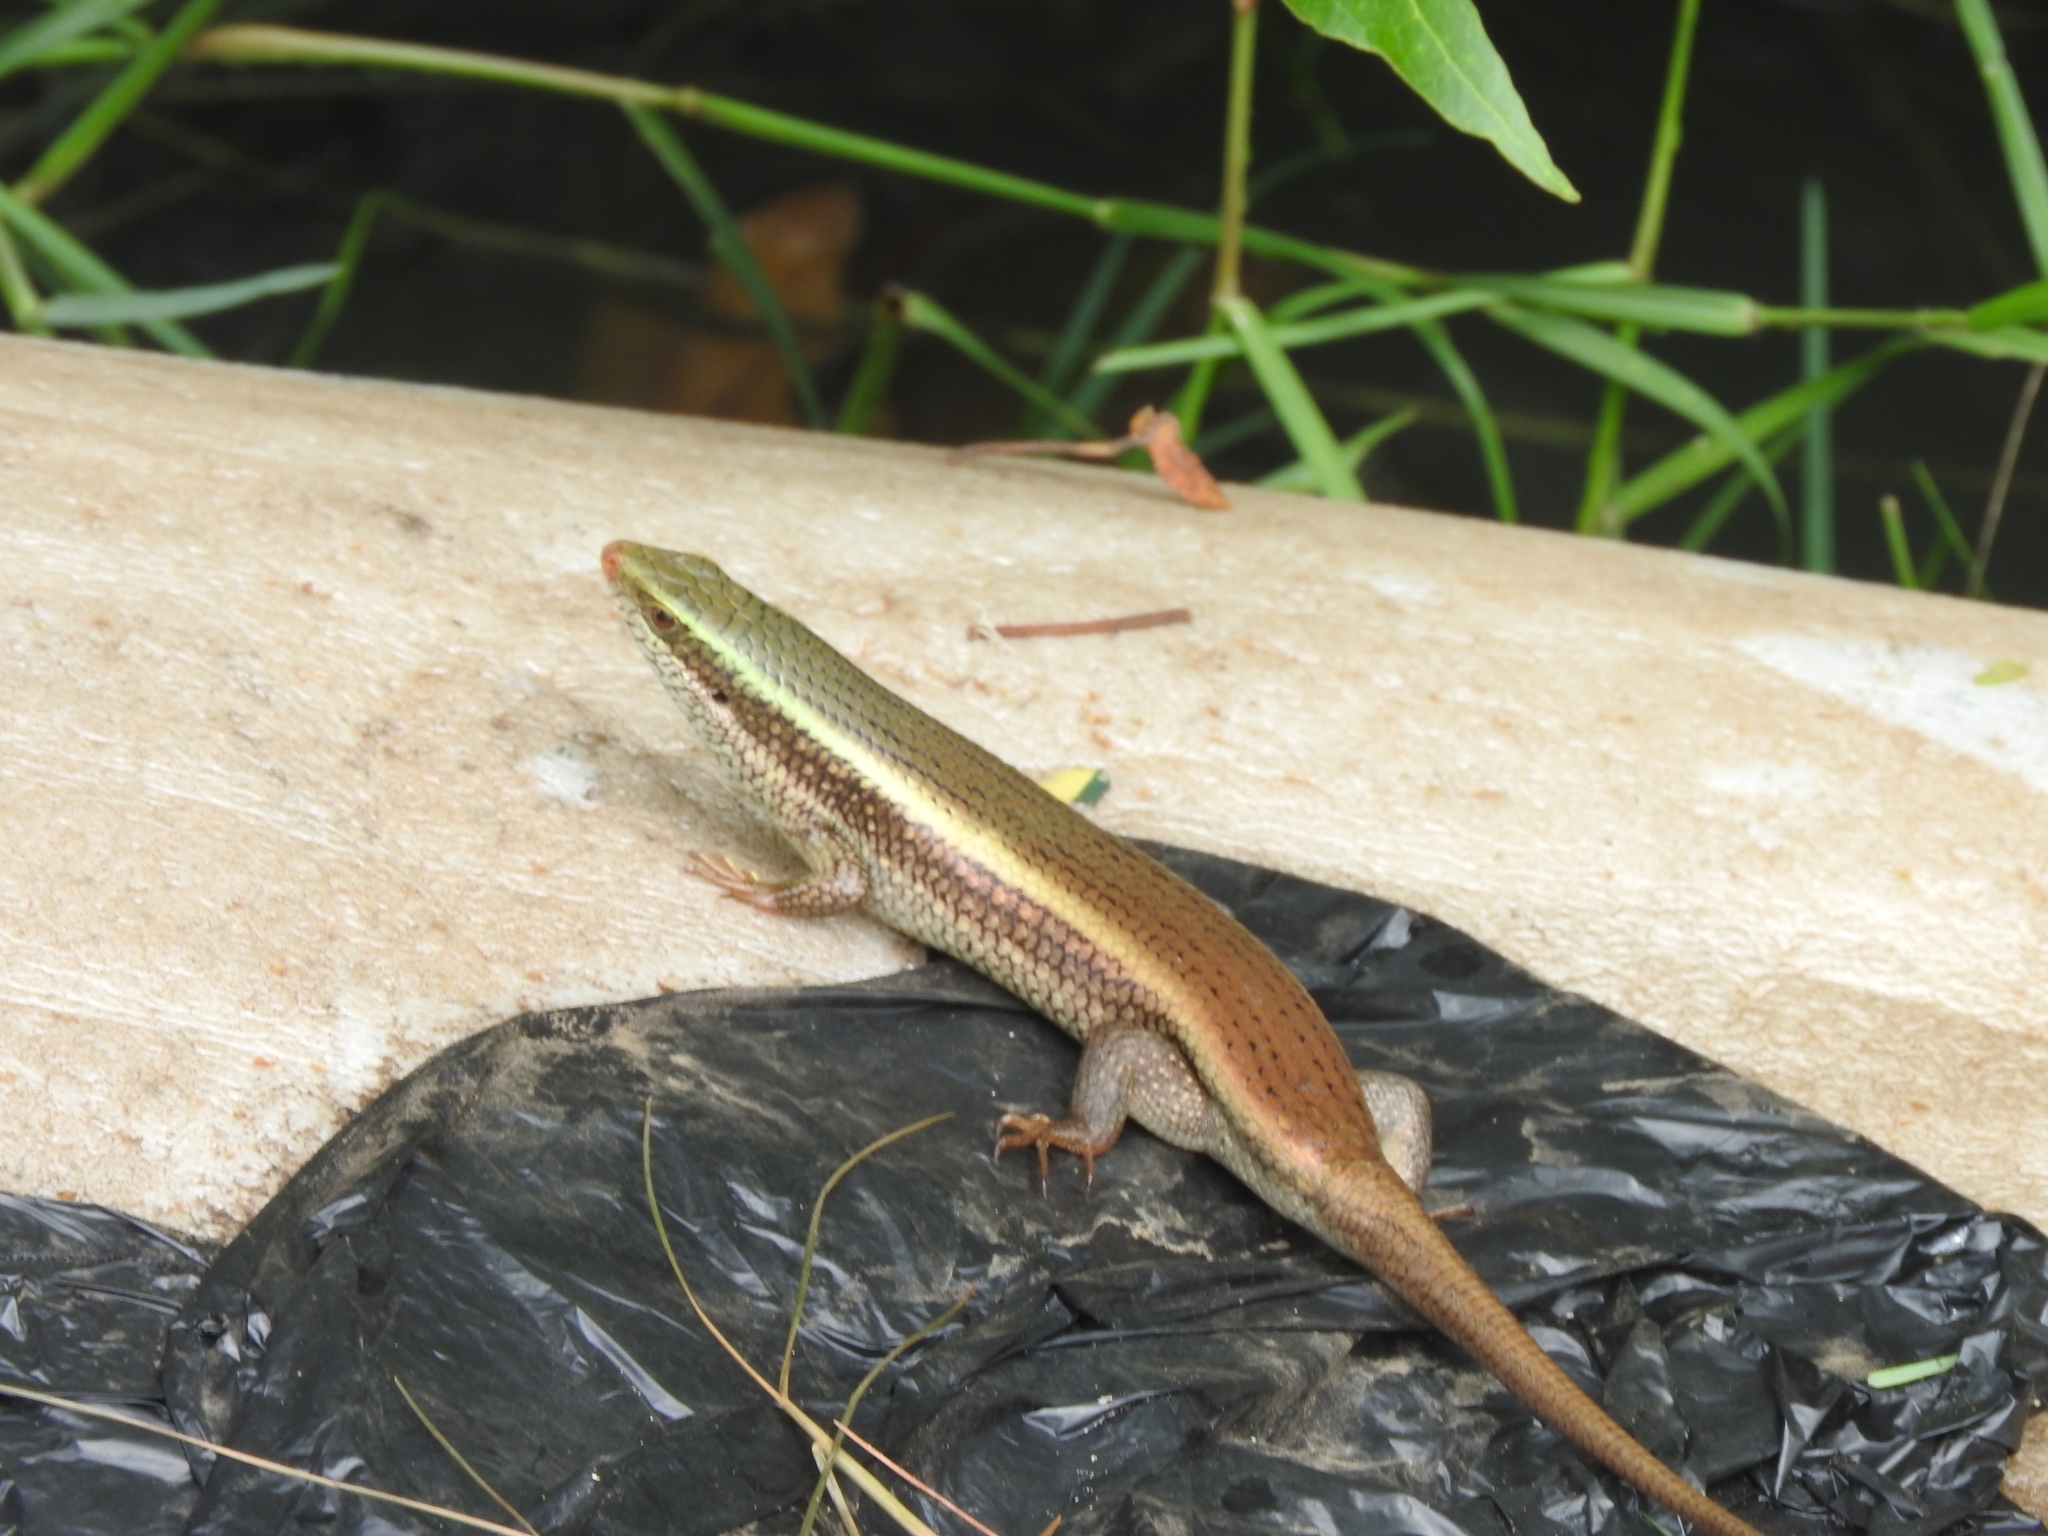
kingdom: Animalia
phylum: Chordata
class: Squamata
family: Scincidae
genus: Eutropis
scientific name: Eutropis carinata
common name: Keeled indian mabuya
